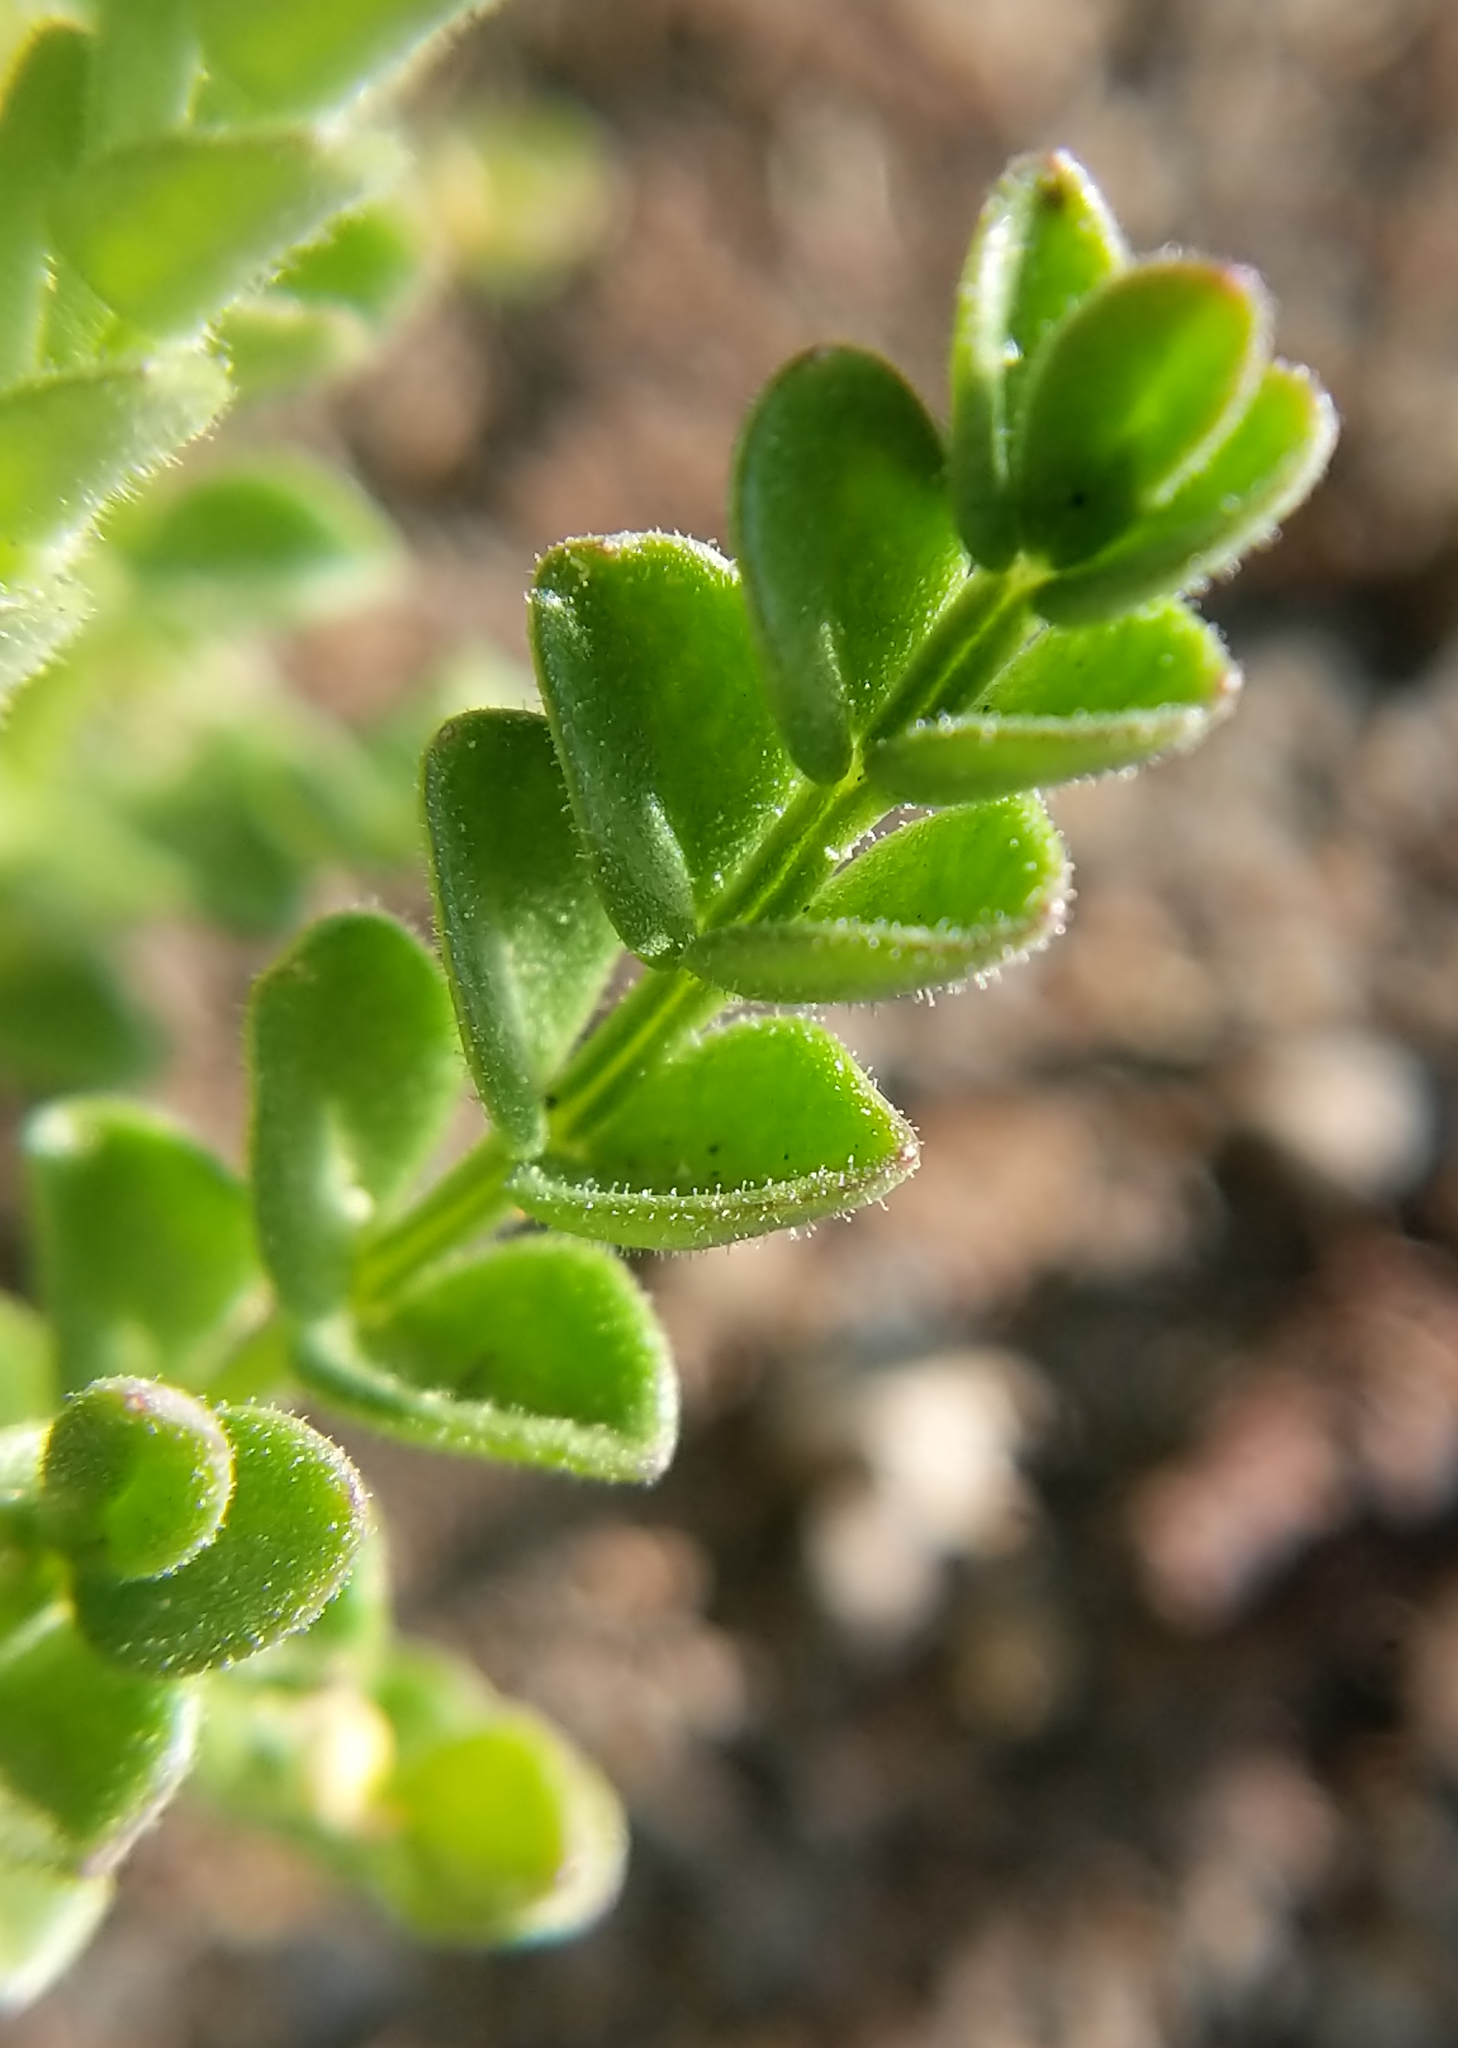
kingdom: Plantae
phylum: Tracheophyta
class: Magnoliopsida
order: Ericales
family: Polemoniaceae
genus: Polemonium
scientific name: Polemonium pulcherrimum
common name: Short jacob's-ladder
